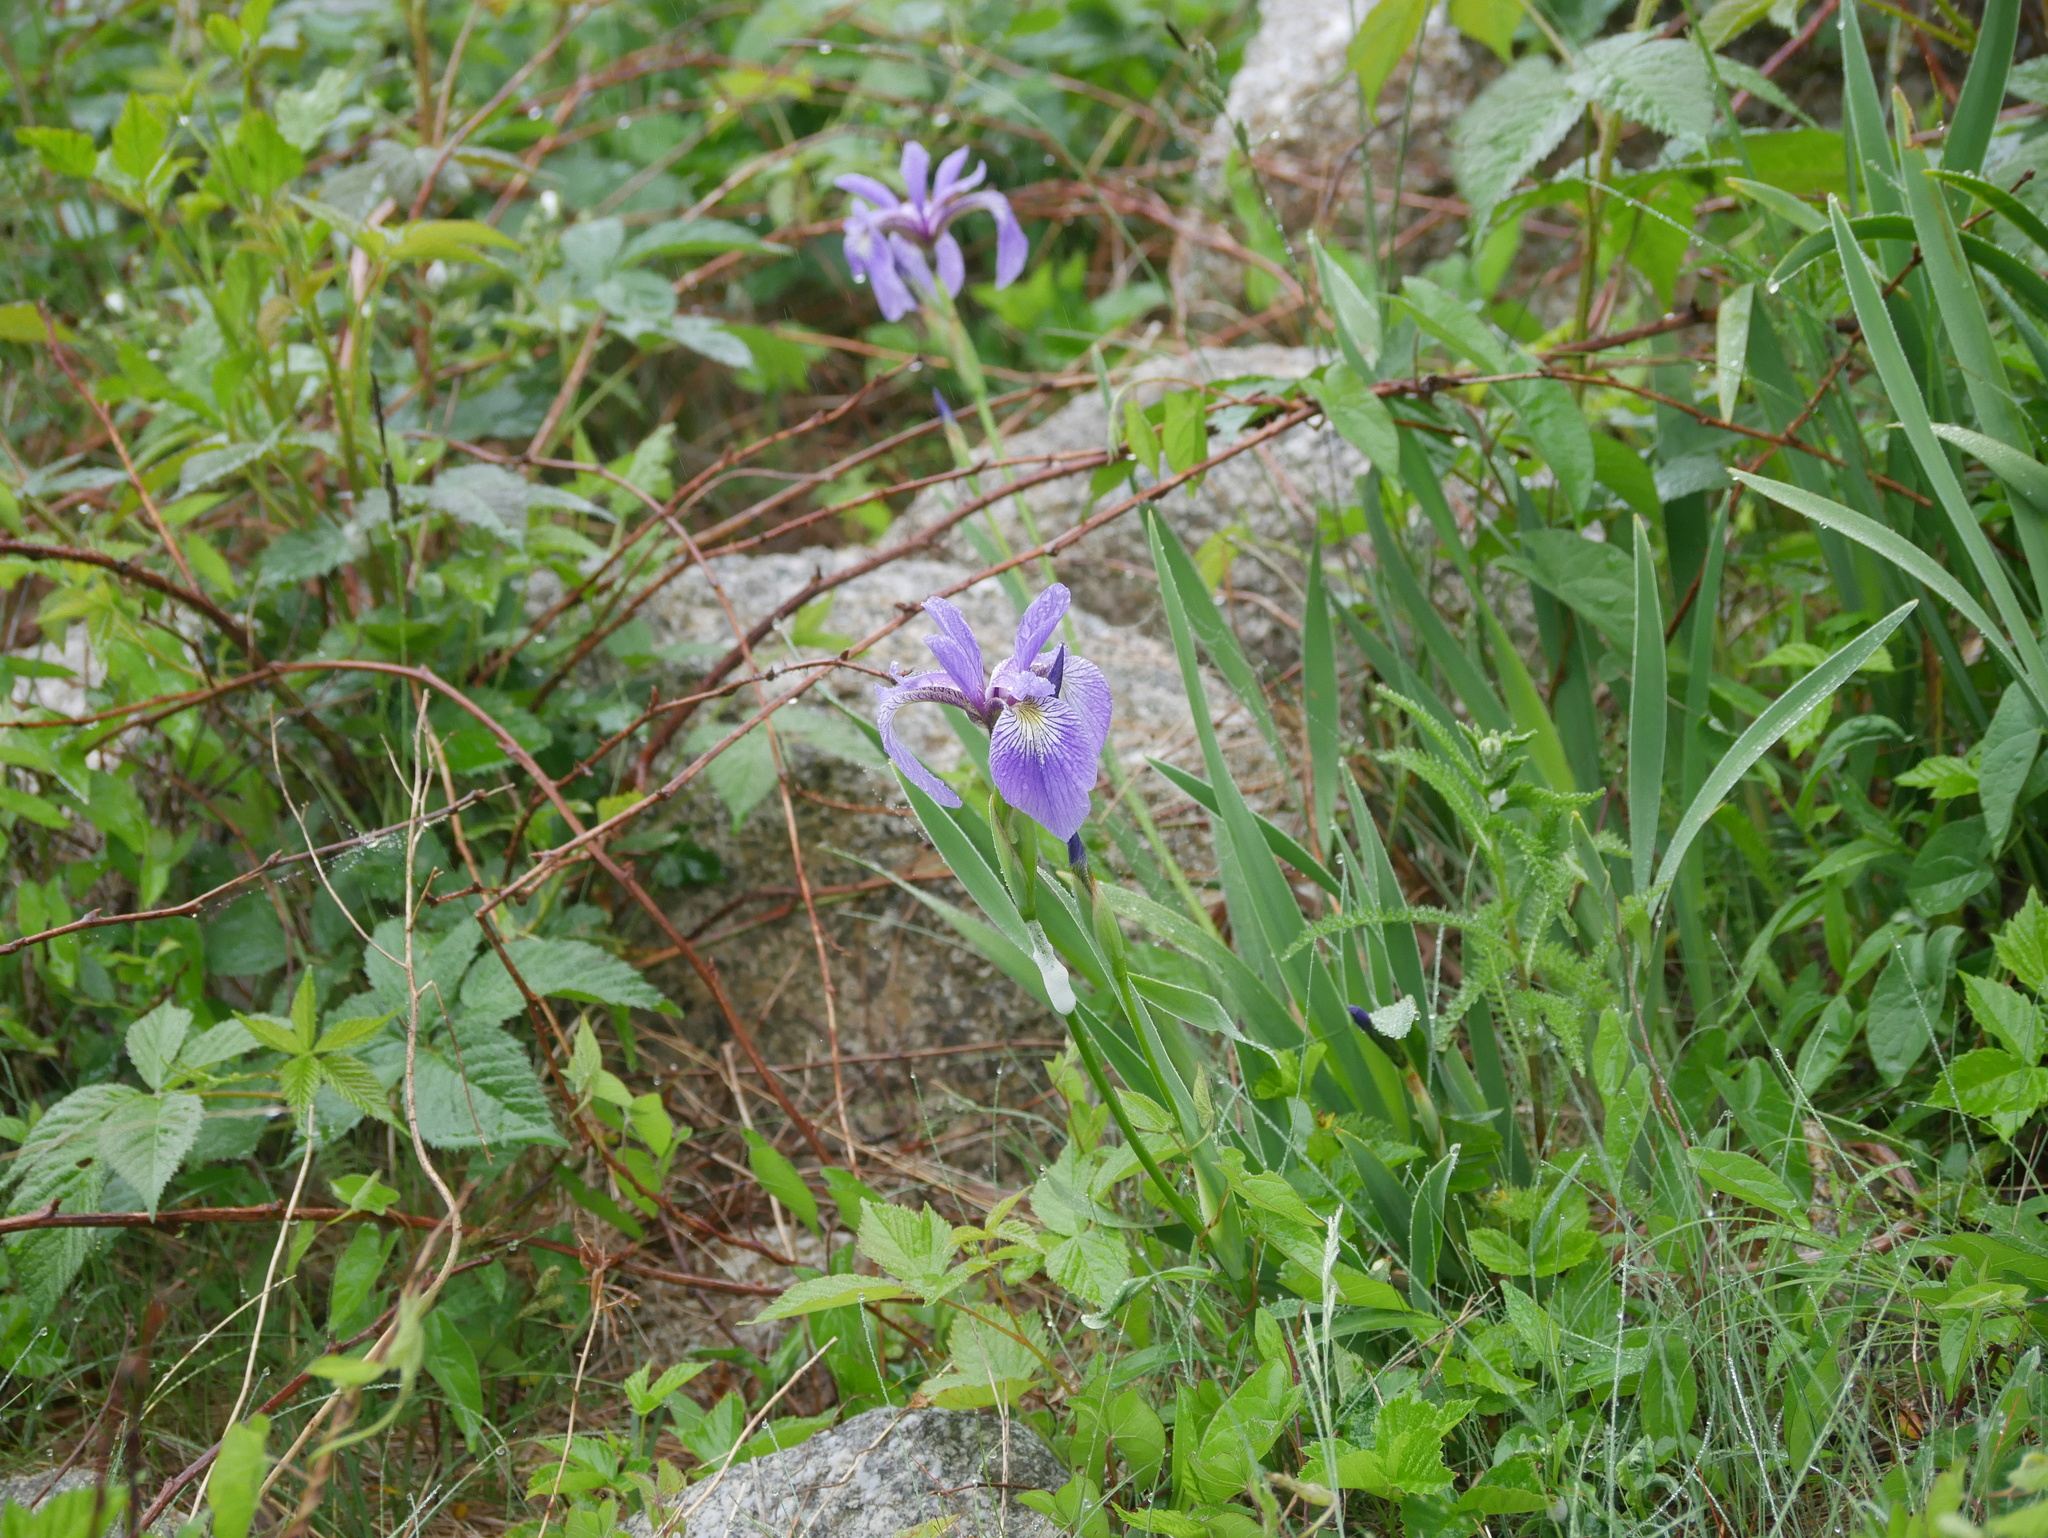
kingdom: Plantae
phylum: Tracheophyta
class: Liliopsida
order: Asparagales
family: Iridaceae
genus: Iris
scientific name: Iris versicolor
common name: Purple iris
